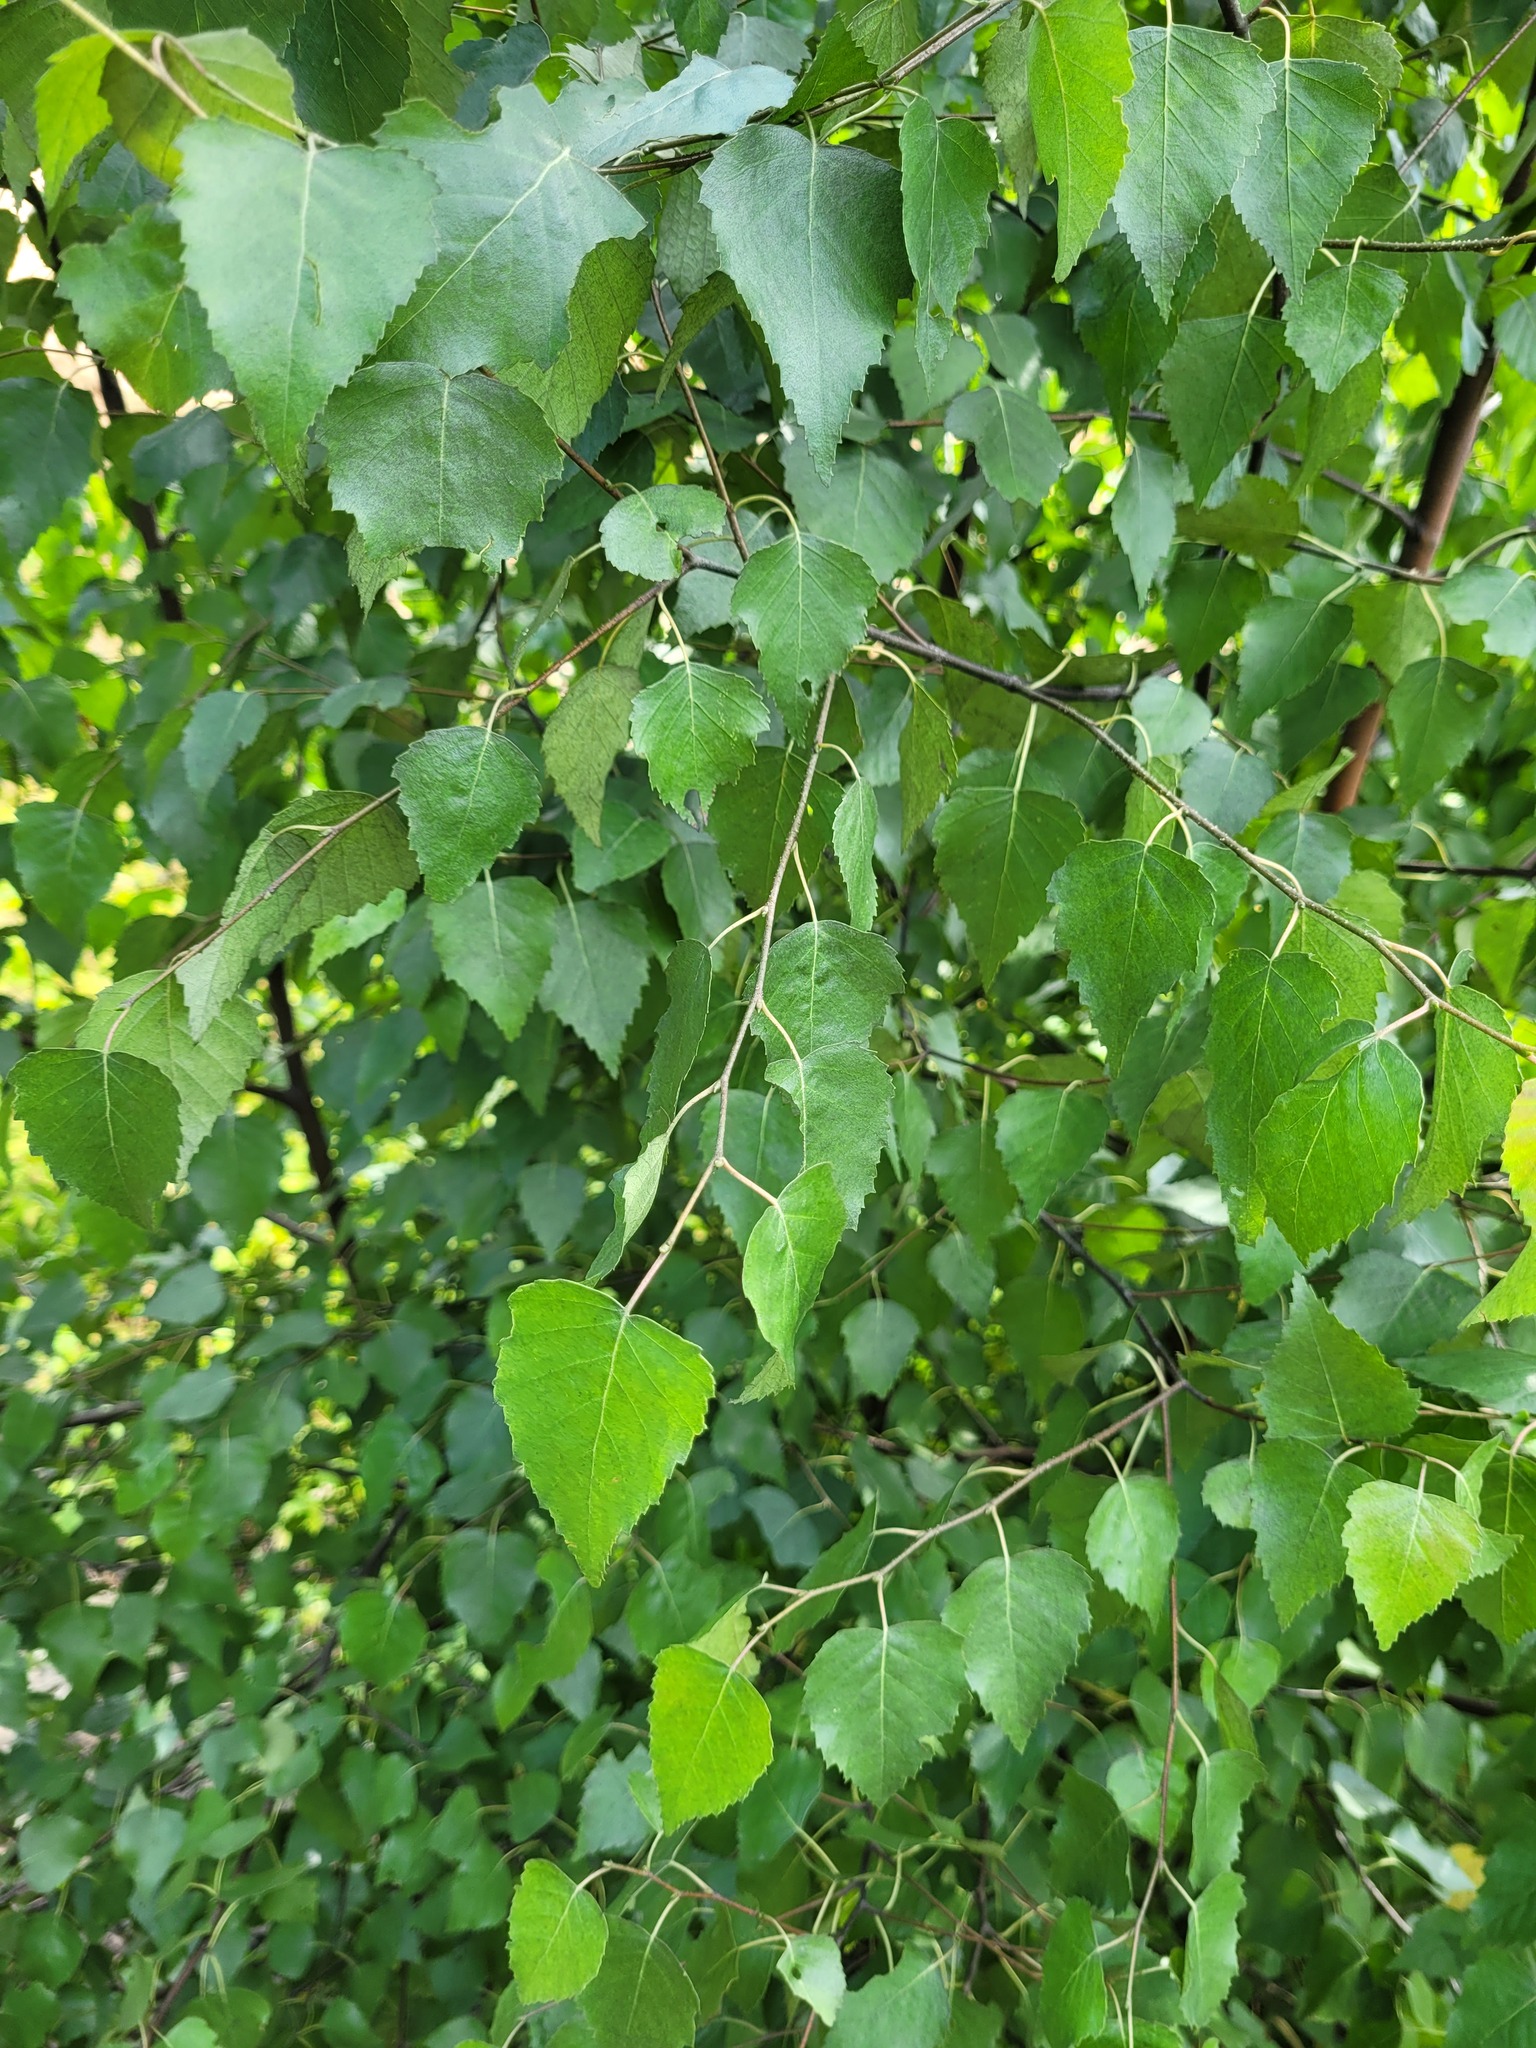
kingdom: Plantae
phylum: Tracheophyta
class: Magnoliopsida
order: Fagales
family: Betulaceae
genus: Betula
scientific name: Betula pendula
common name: Silver birch
